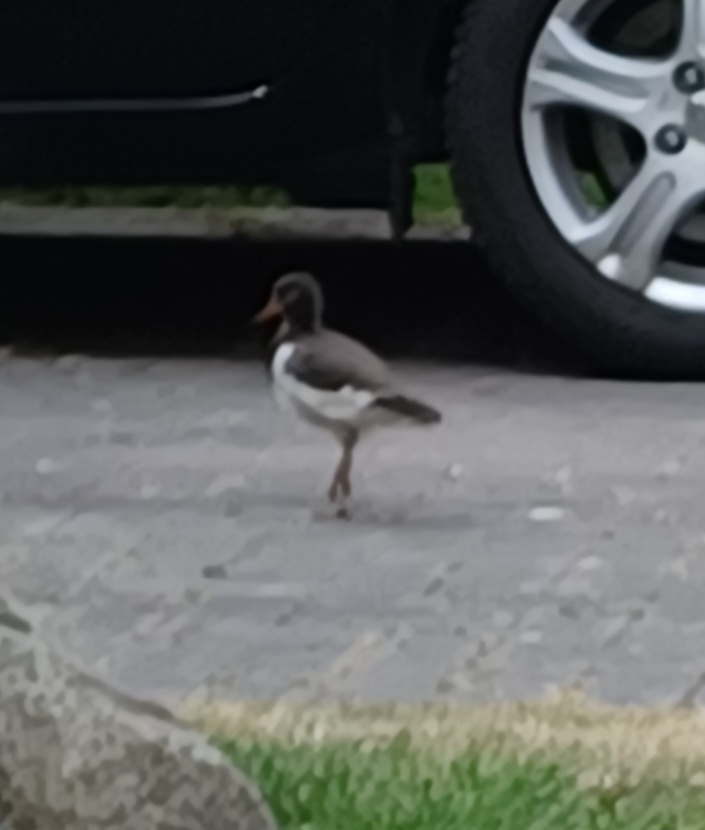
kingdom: Animalia
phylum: Chordata
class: Aves
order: Charadriiformes
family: Haematopodidae
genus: Haematopus
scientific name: Haematopus ostralegus
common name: Eurasian oystercatcher
